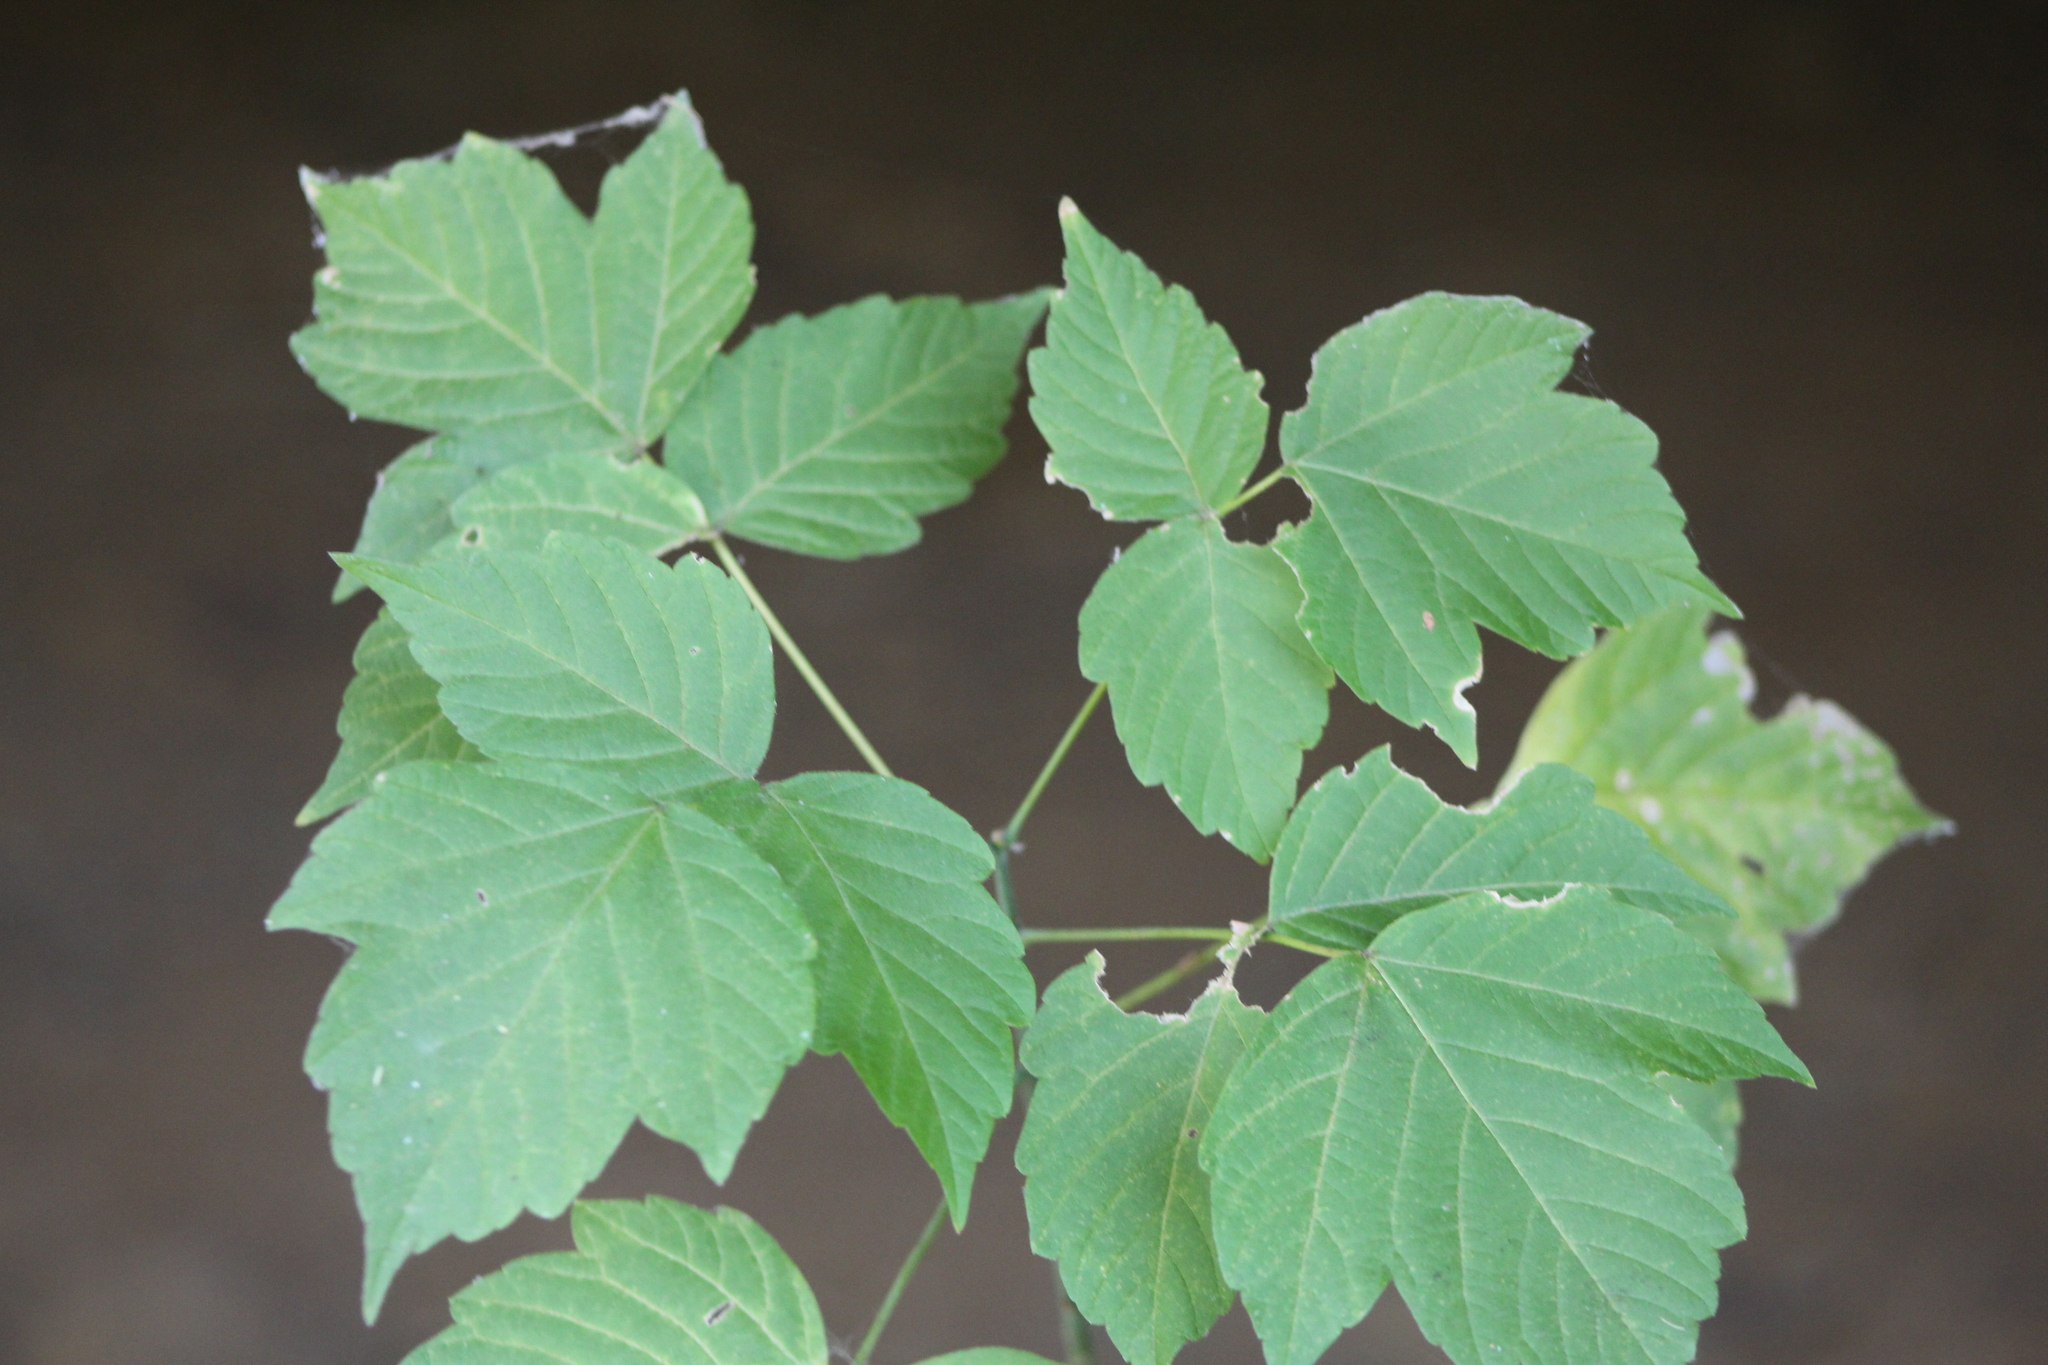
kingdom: Plantae
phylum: Tracheophyta
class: Magnoliopsida
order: Sapindales
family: Sapindaceae
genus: Acer
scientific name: Acer negundo
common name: Ashleaf maple
